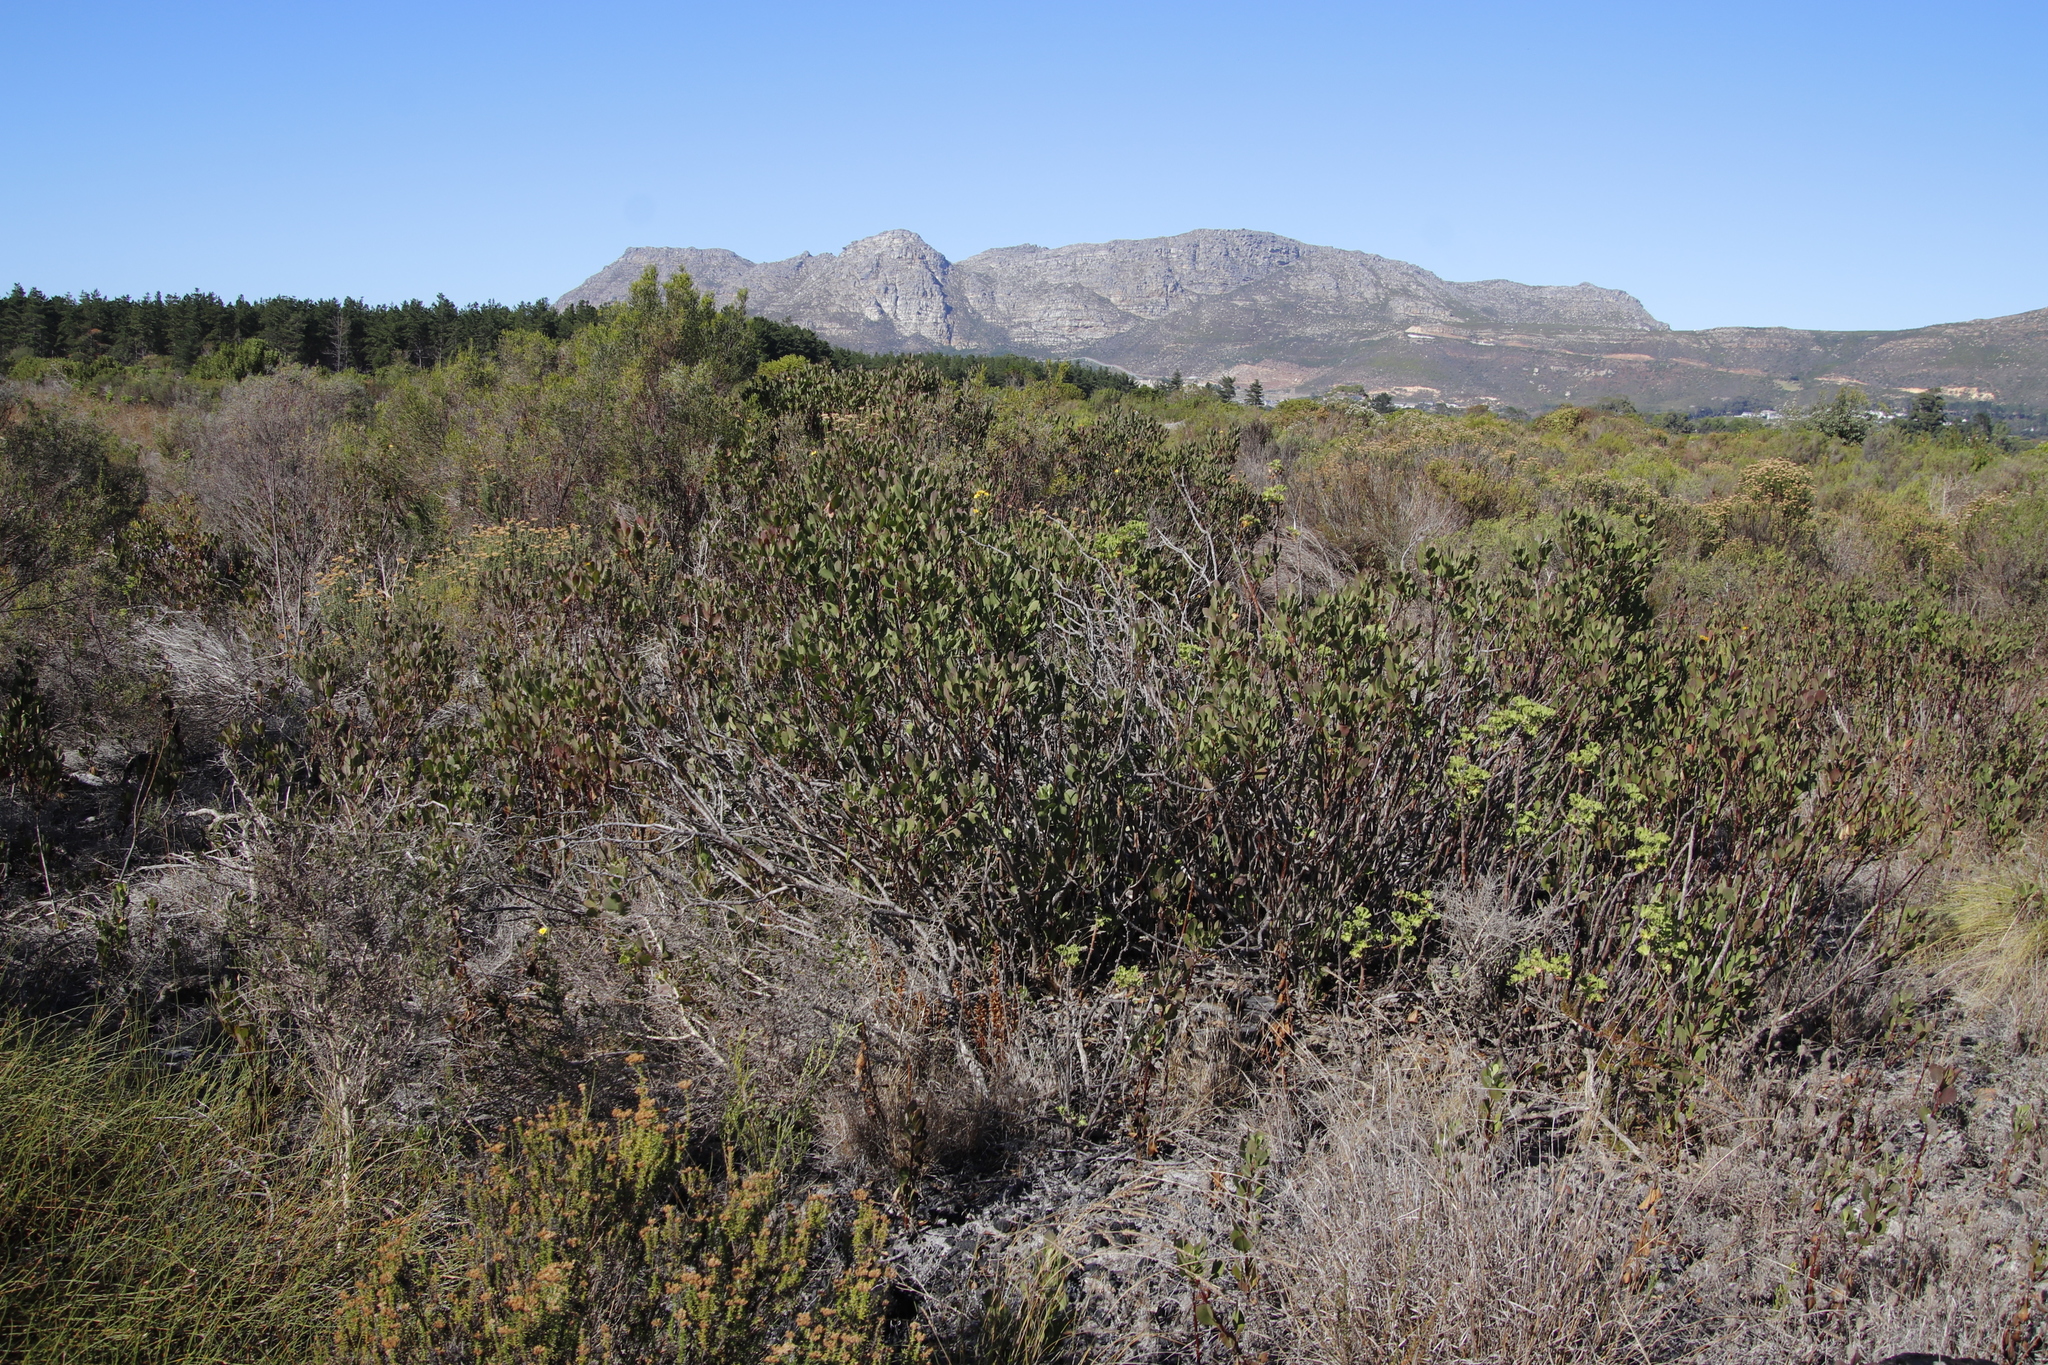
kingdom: Plantae
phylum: Tracheophyta
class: Magnoliopsida
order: Asterales
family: Asteraceae
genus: Osteospermum
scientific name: Osteospermum moniliferum
